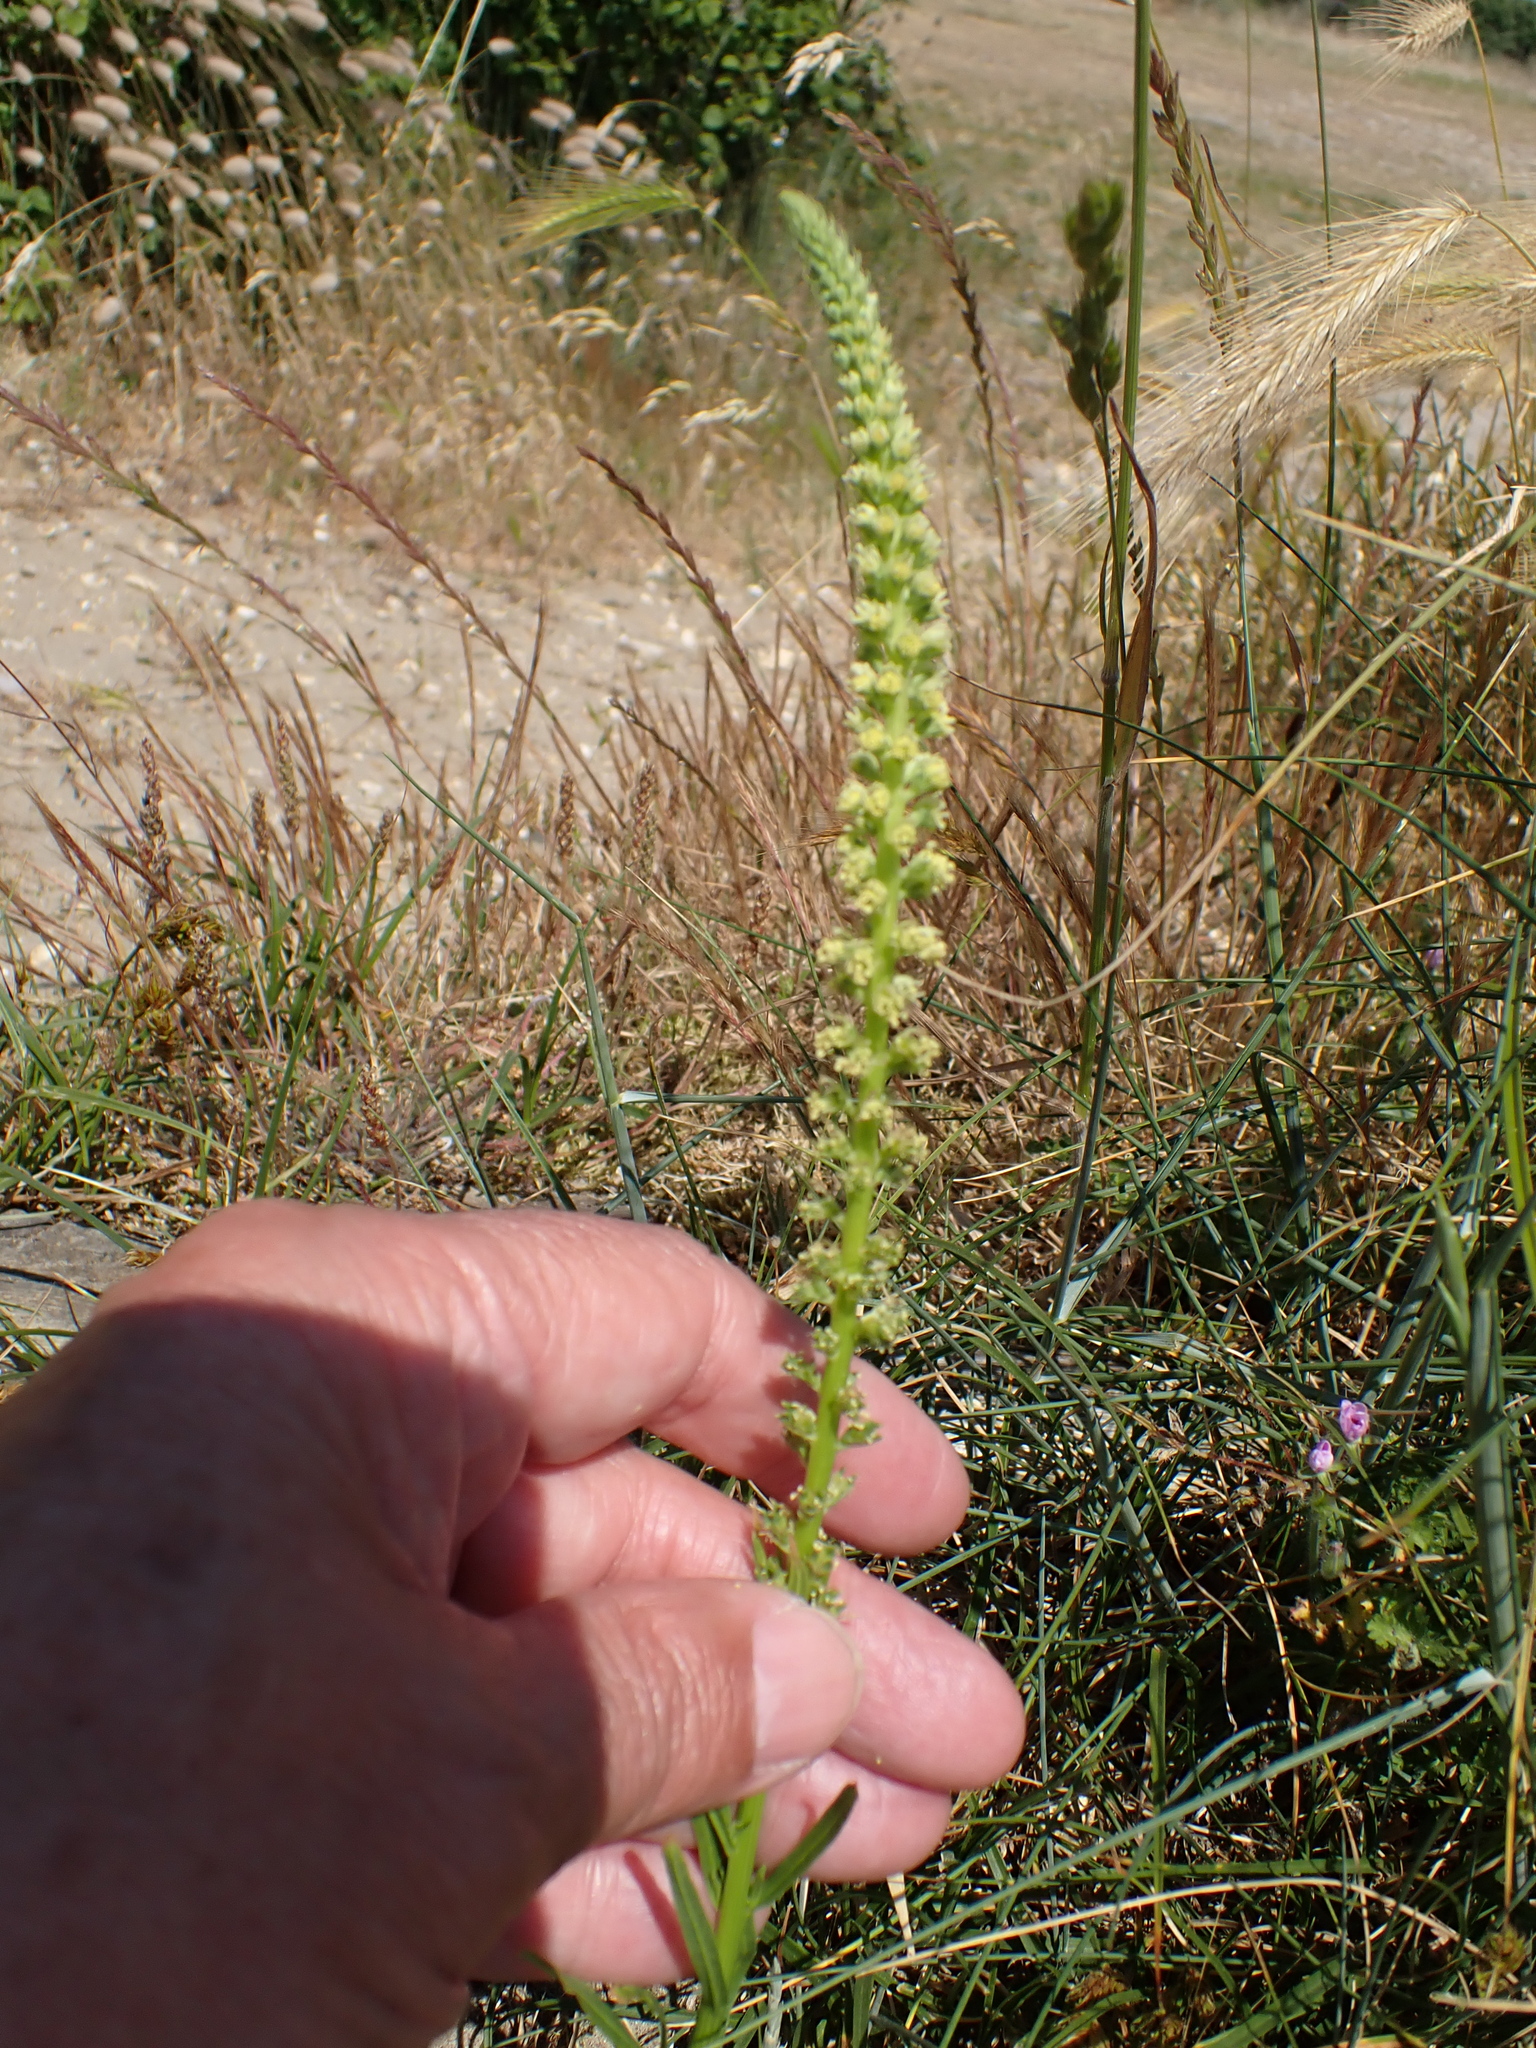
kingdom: Plantae
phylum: Tracheophyta
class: Magnoliopsida
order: Brassicales
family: Resedaceae
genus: Reseda
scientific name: Reseda luteola
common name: Weld
